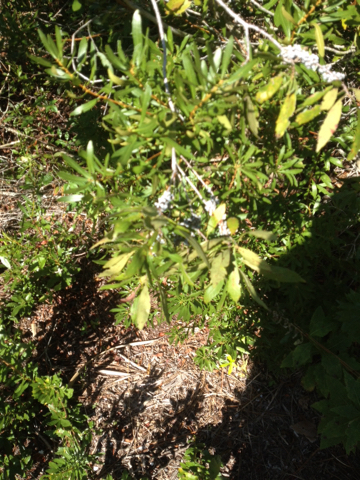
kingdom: Plantae
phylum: Tracheophyta
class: Magnoliopsida
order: Fagales
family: Myricaceae
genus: Morella
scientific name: Morella cerifera
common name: Wax myrtle
